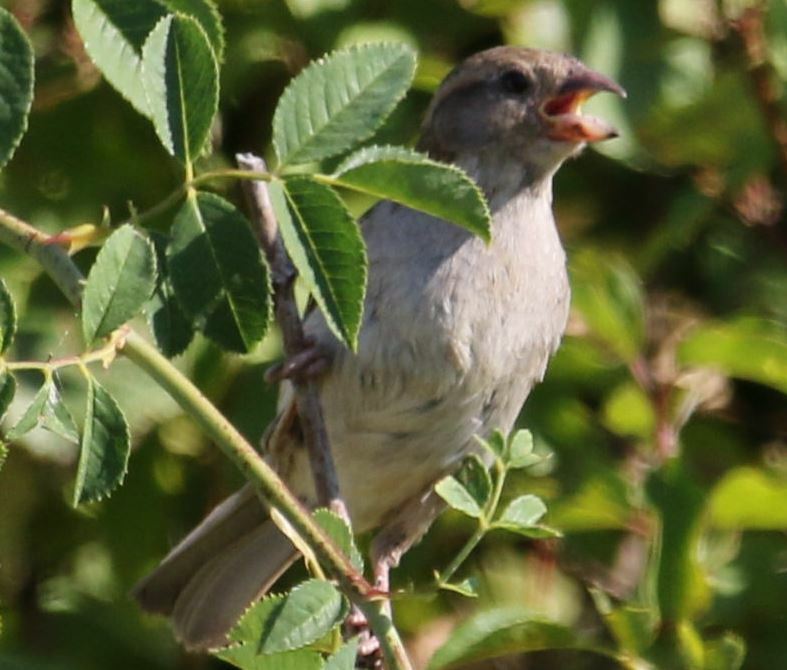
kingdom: Animalia
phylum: Chordata
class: Aves
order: Passeriformes
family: Passeridae
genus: Passer
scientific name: Passer domesticus
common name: House sparrow
